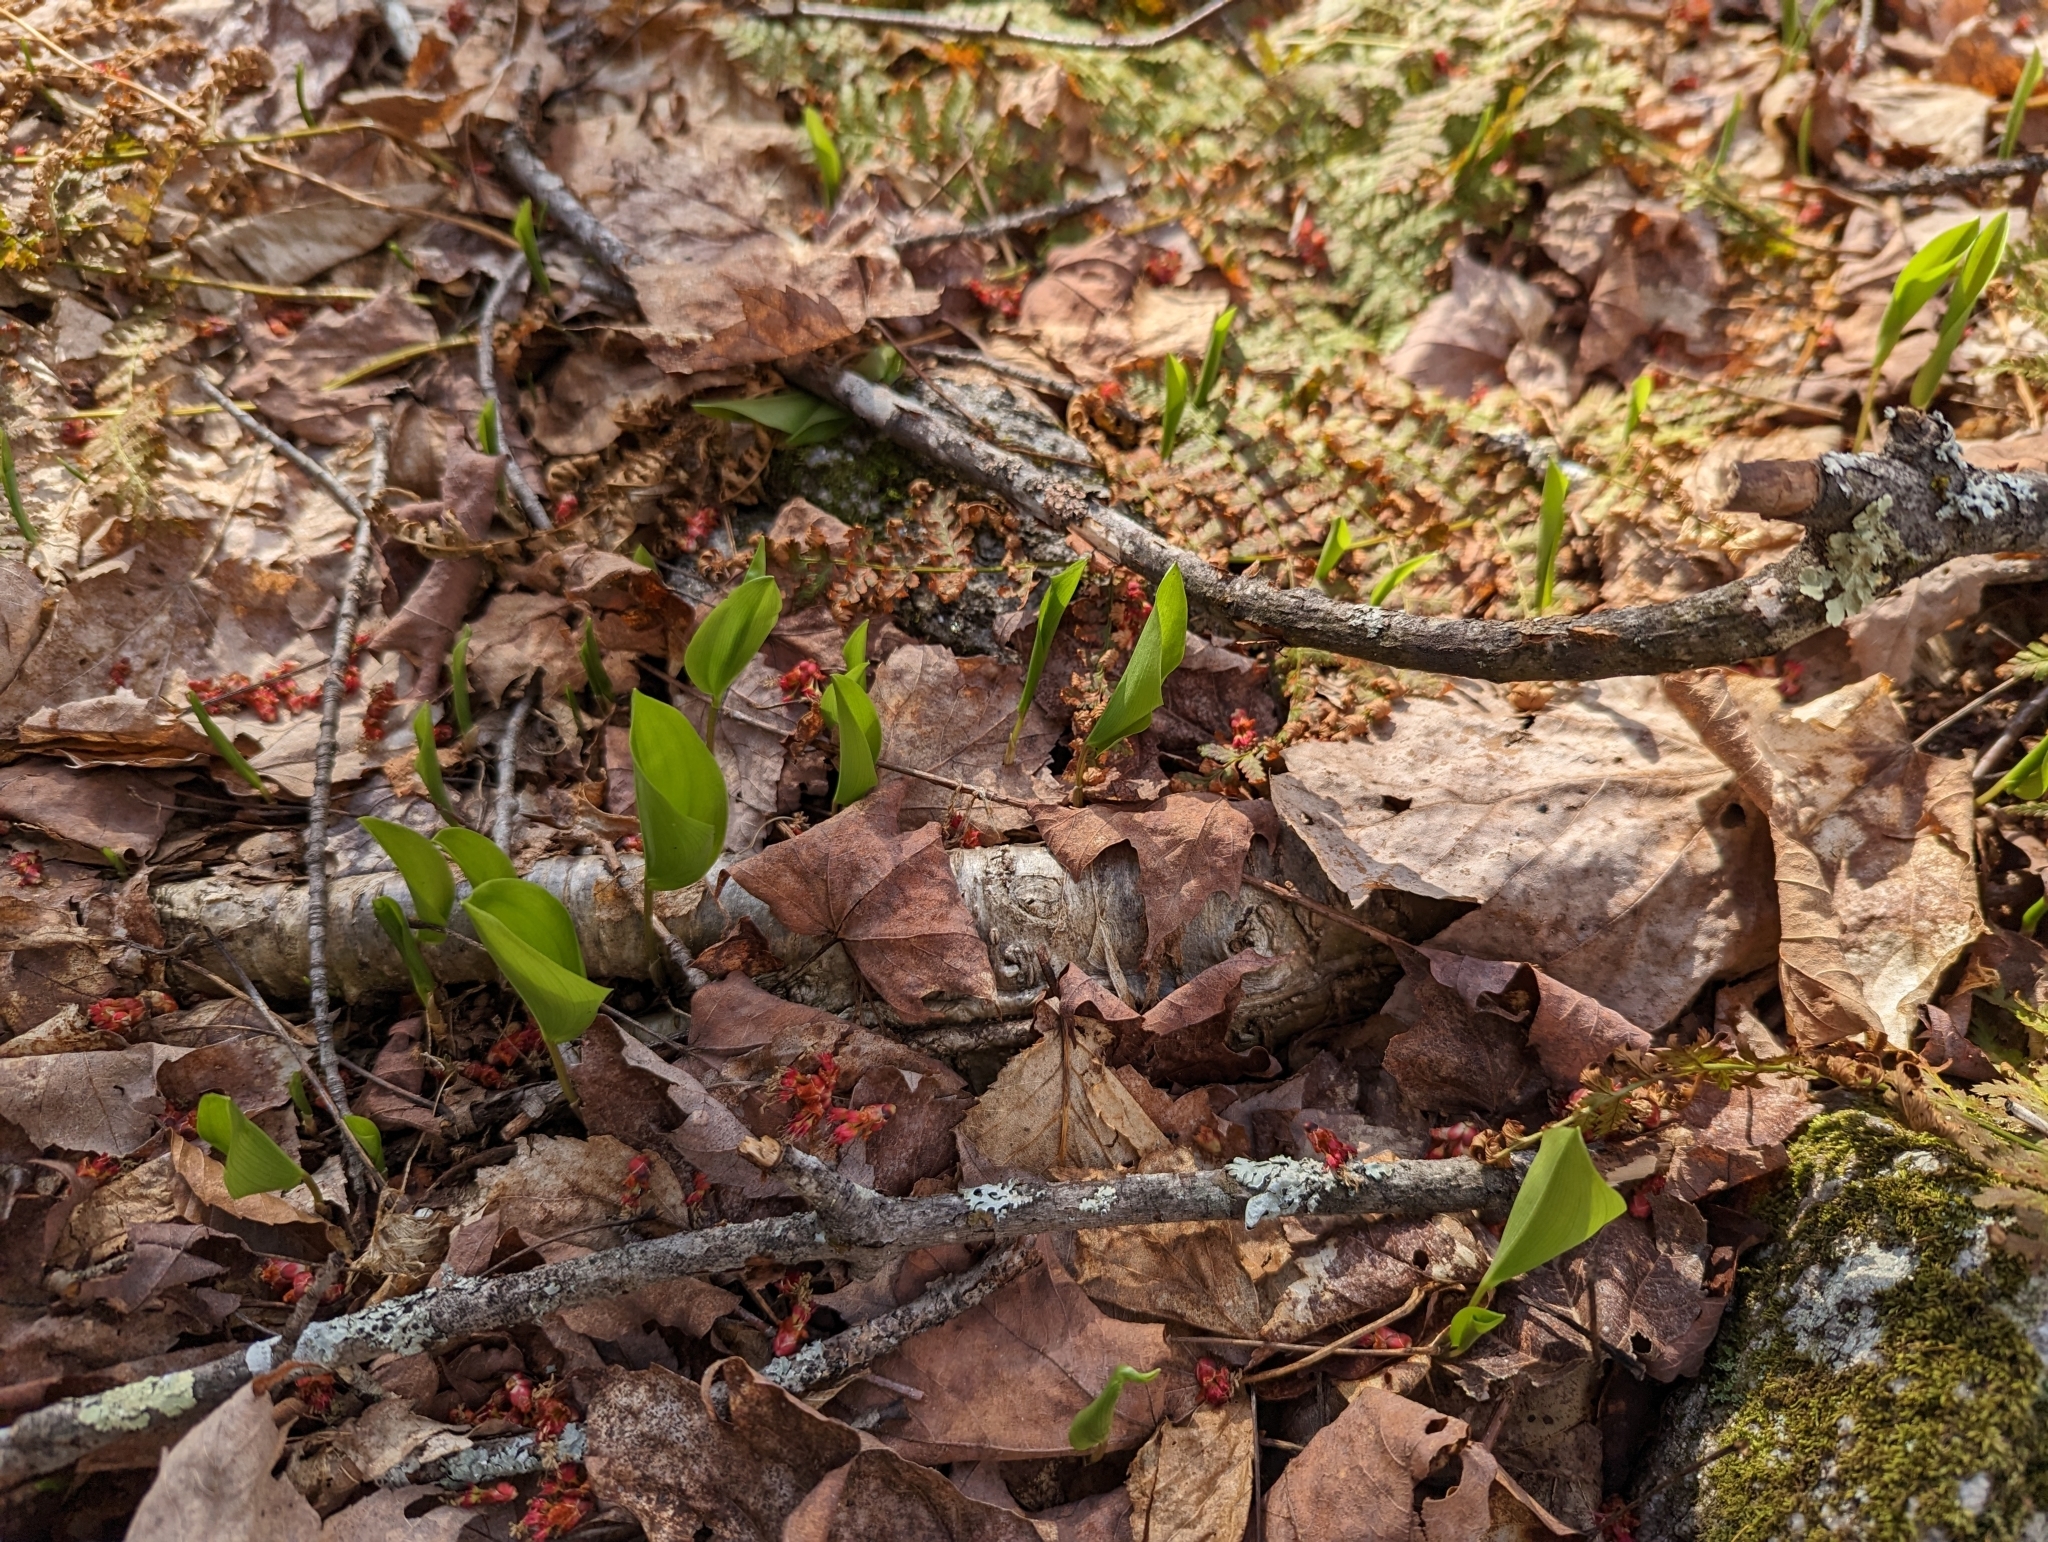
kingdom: Plantae
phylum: Tracheophyta
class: Liliopsida
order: Asparagales
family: Asparagaceae
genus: Maianthemum
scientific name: Maianthemum canadense
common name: False lily-of-the-valley
